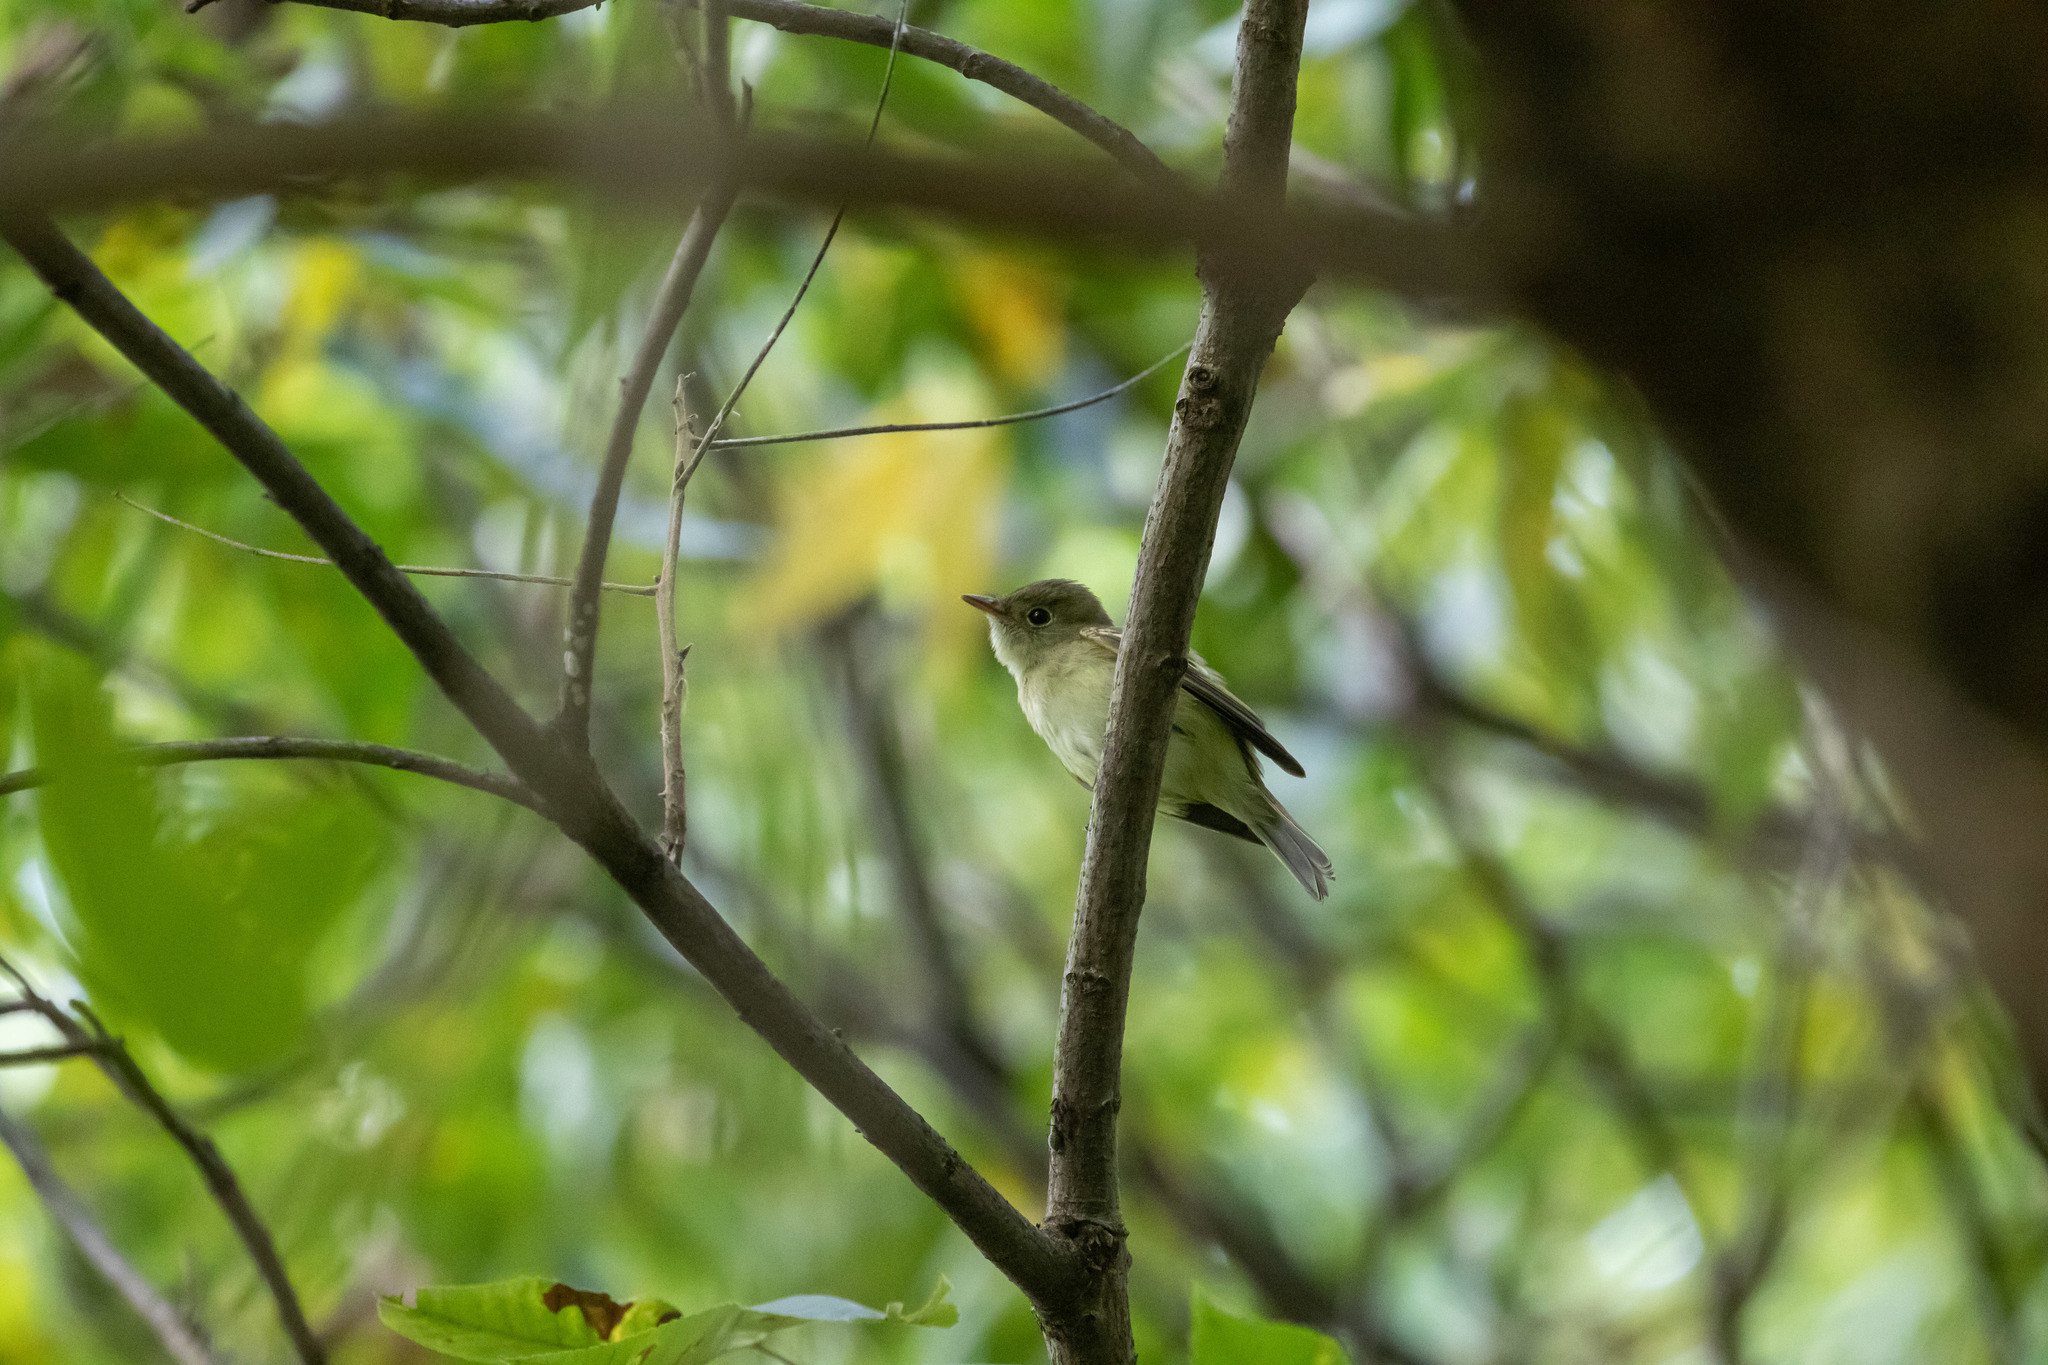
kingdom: Animalia
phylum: Chordata
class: Aves
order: Passeriformes
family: Tyrannidae
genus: Empidonax
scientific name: Empidonax virescens
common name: Acadian flycatcher
